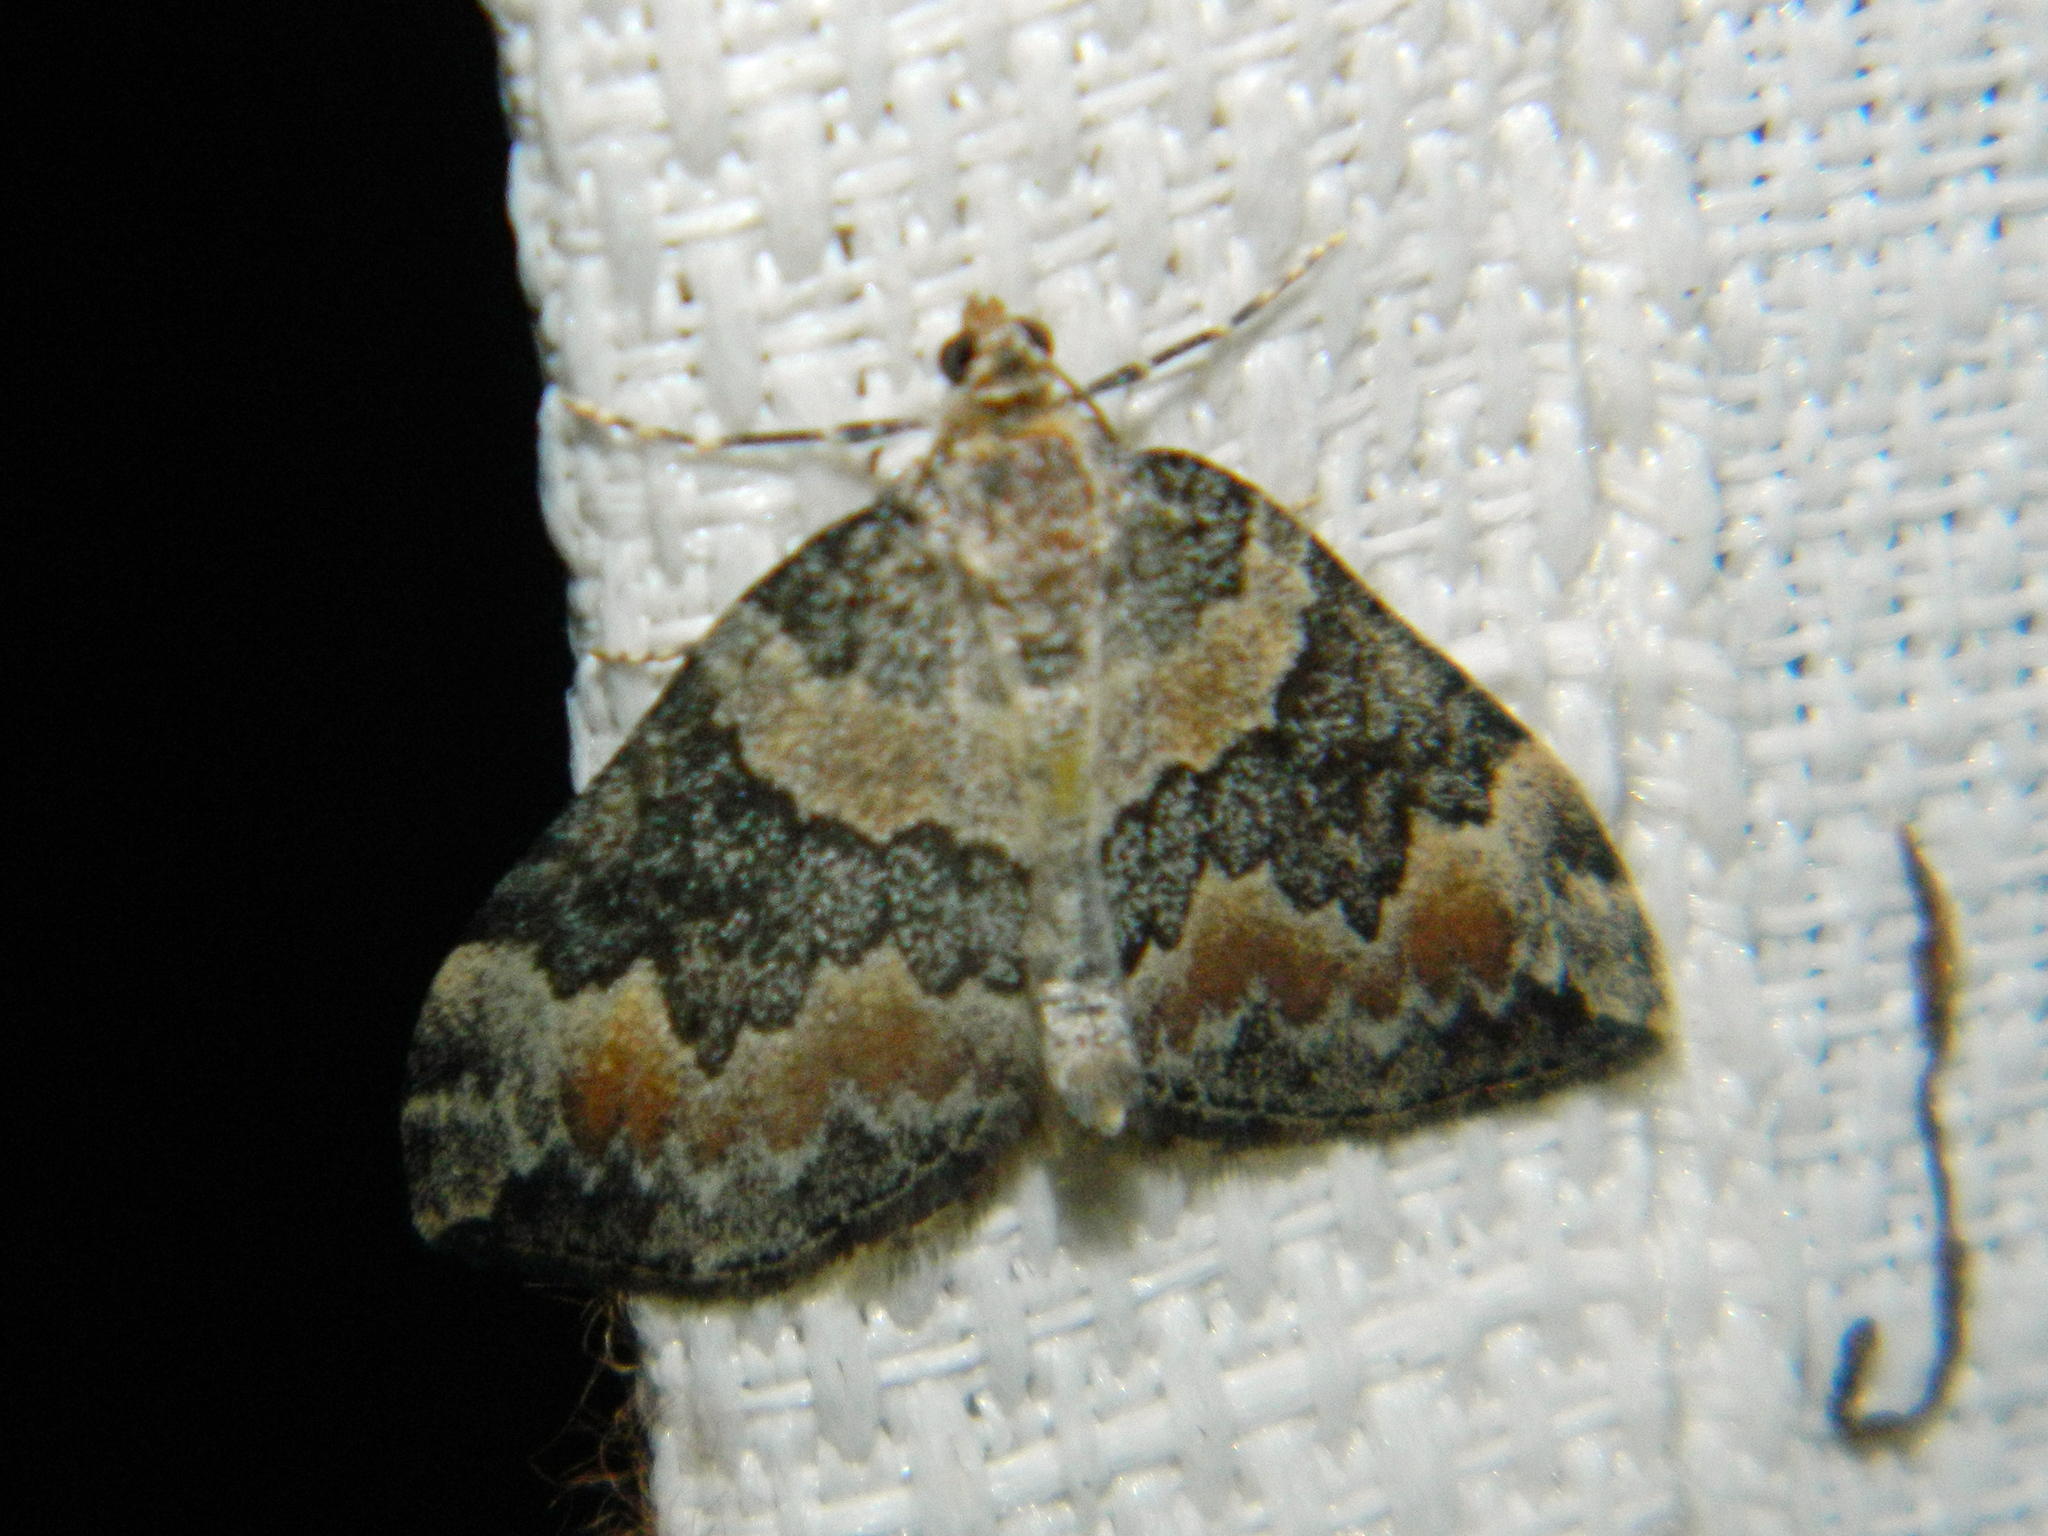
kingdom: Animalia
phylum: Arthropoda
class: Insecta
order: Lepidoptera
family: Geometridae
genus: Dysstroma
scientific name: Dysstroma brunneata
